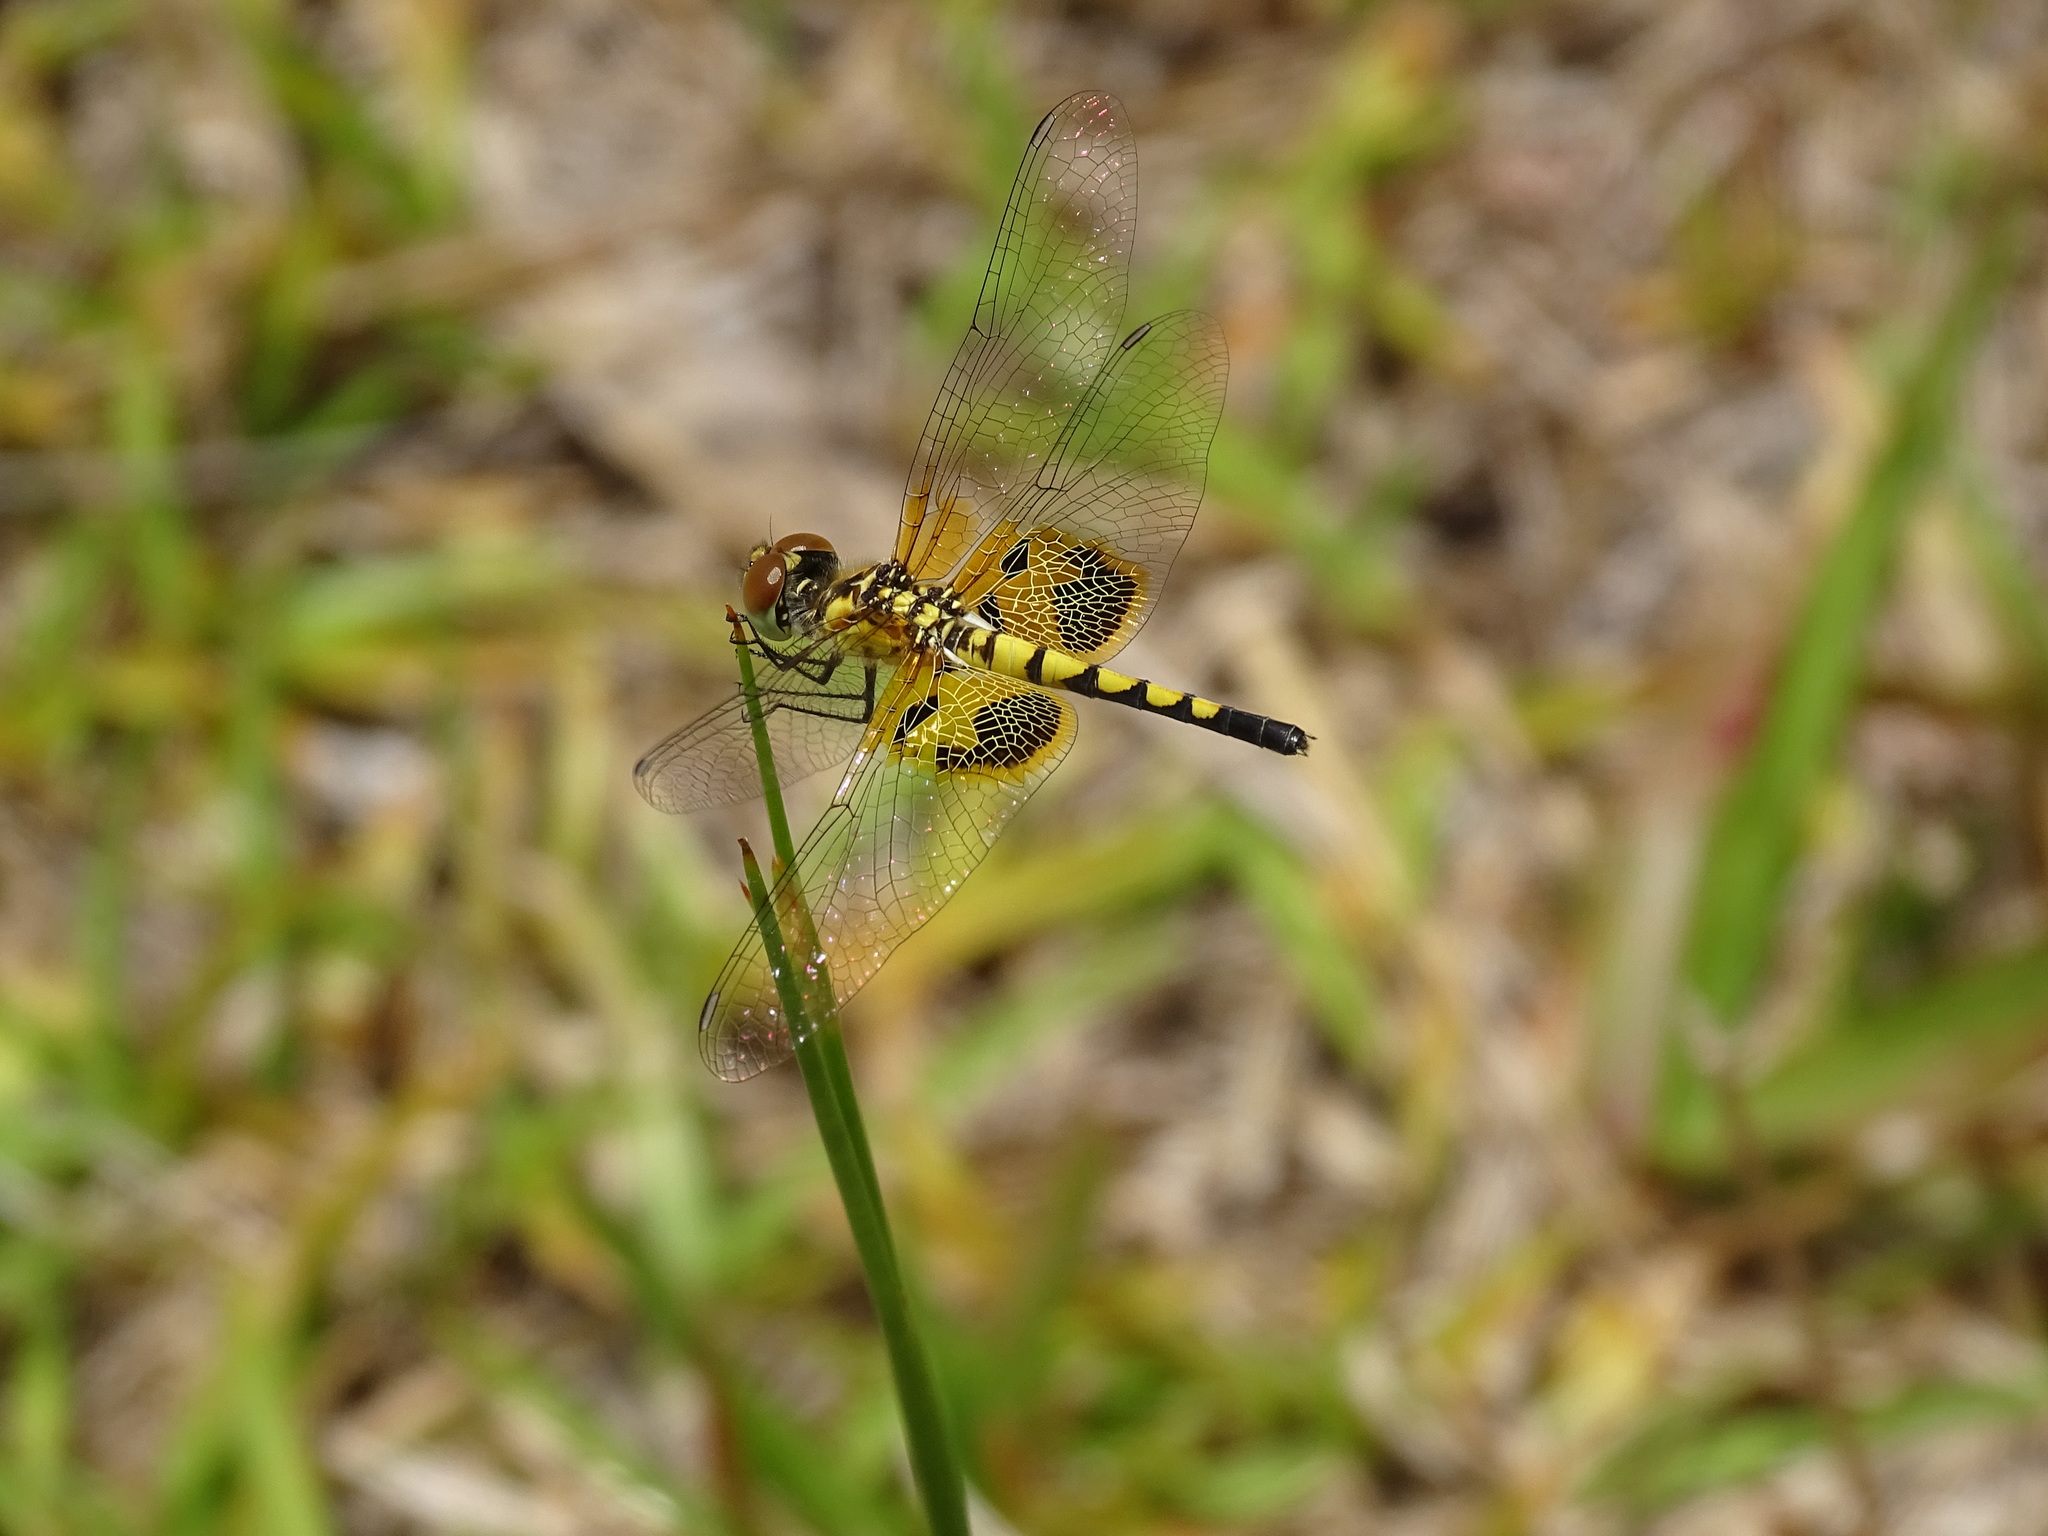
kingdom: Animalia
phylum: Arthropoda
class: Insecta
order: Odonata
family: Libellulidae
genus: Celithemis
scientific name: Celithemis amanda
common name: Amanda's pennant
